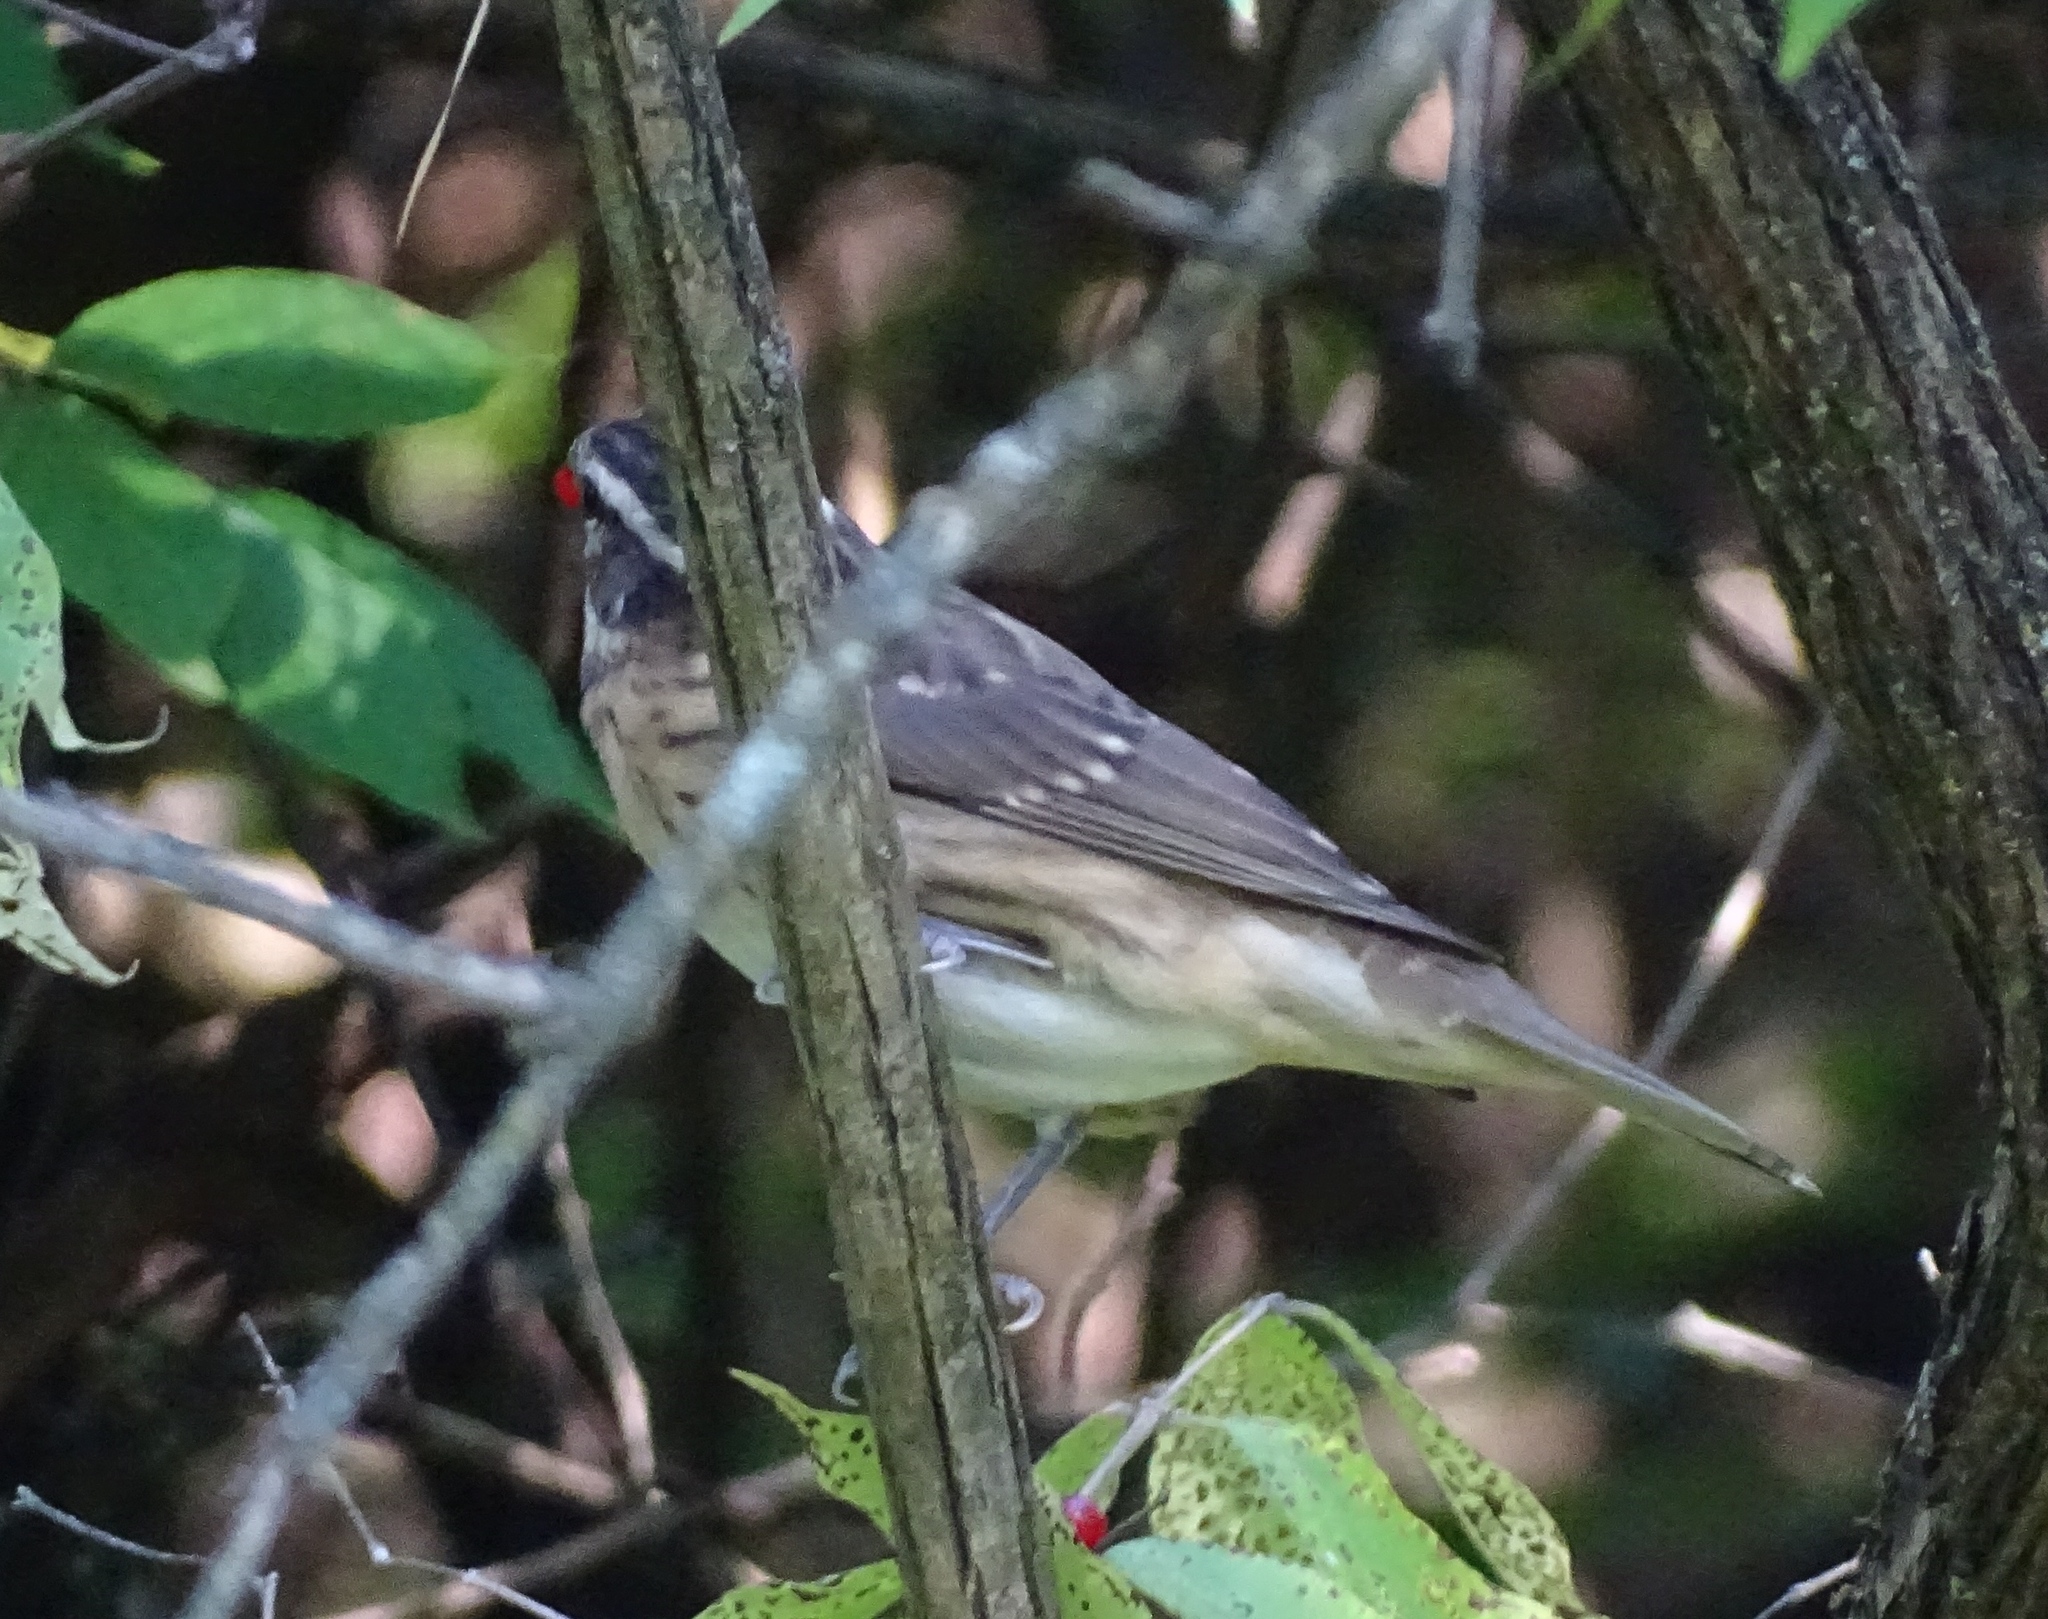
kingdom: Animalia
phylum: Chordata
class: Aves
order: Passeriformes
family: Cardinalidae
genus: Pheucticus
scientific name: Pheucticus ludovicianus
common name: Rose-breasted grosbeak
